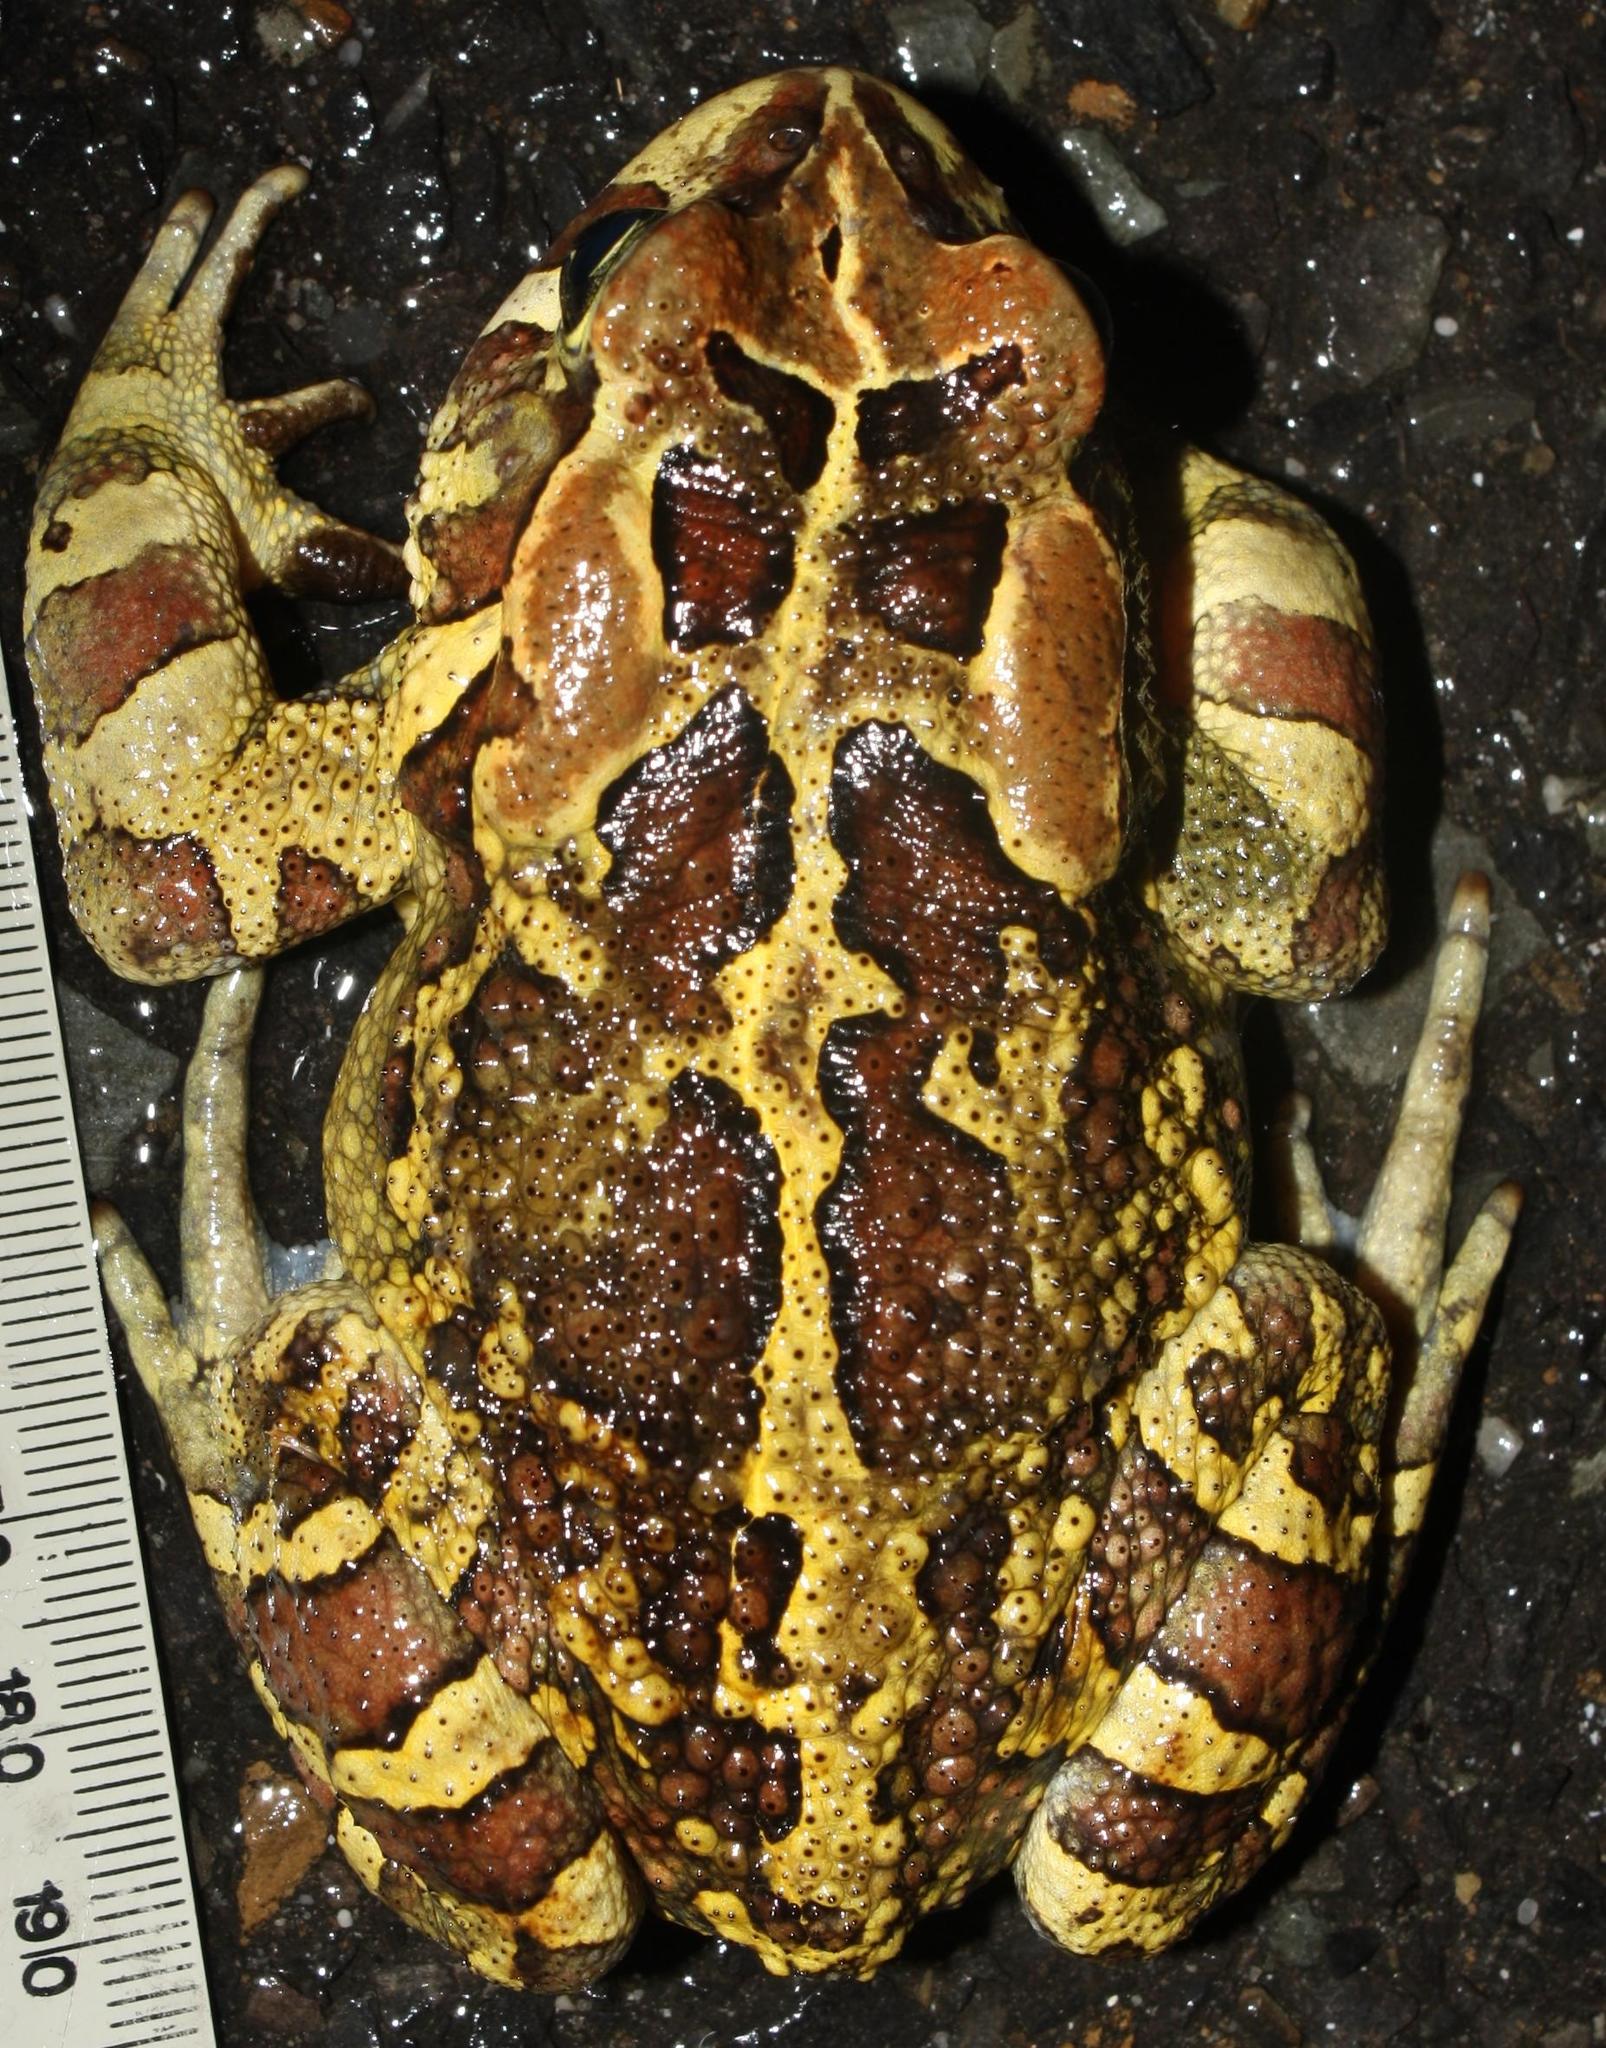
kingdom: Animalia
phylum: Chordata
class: Amphibia
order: Anura
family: Bufonidae
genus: Sclerophrys
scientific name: Sclerophrys pantherina
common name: Panther toad
